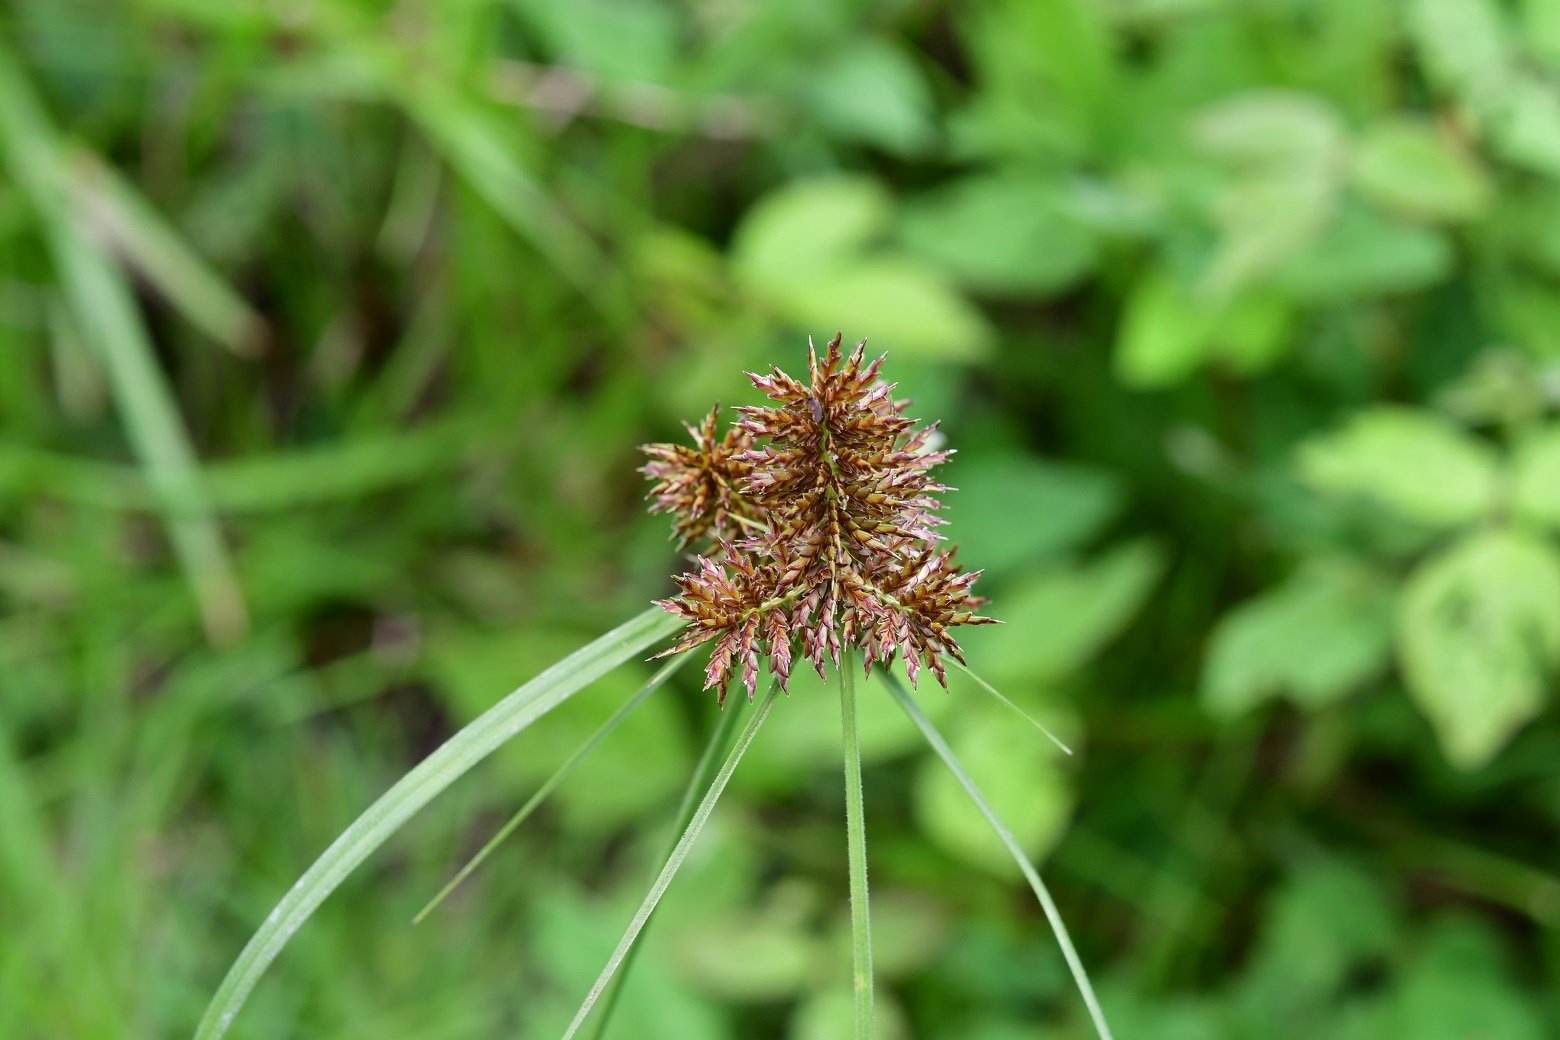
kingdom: Plantae
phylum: Tracheophyta
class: Liliopsida
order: Poales
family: Cyperaceae
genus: Cyperus
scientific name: Cyperus manimae
